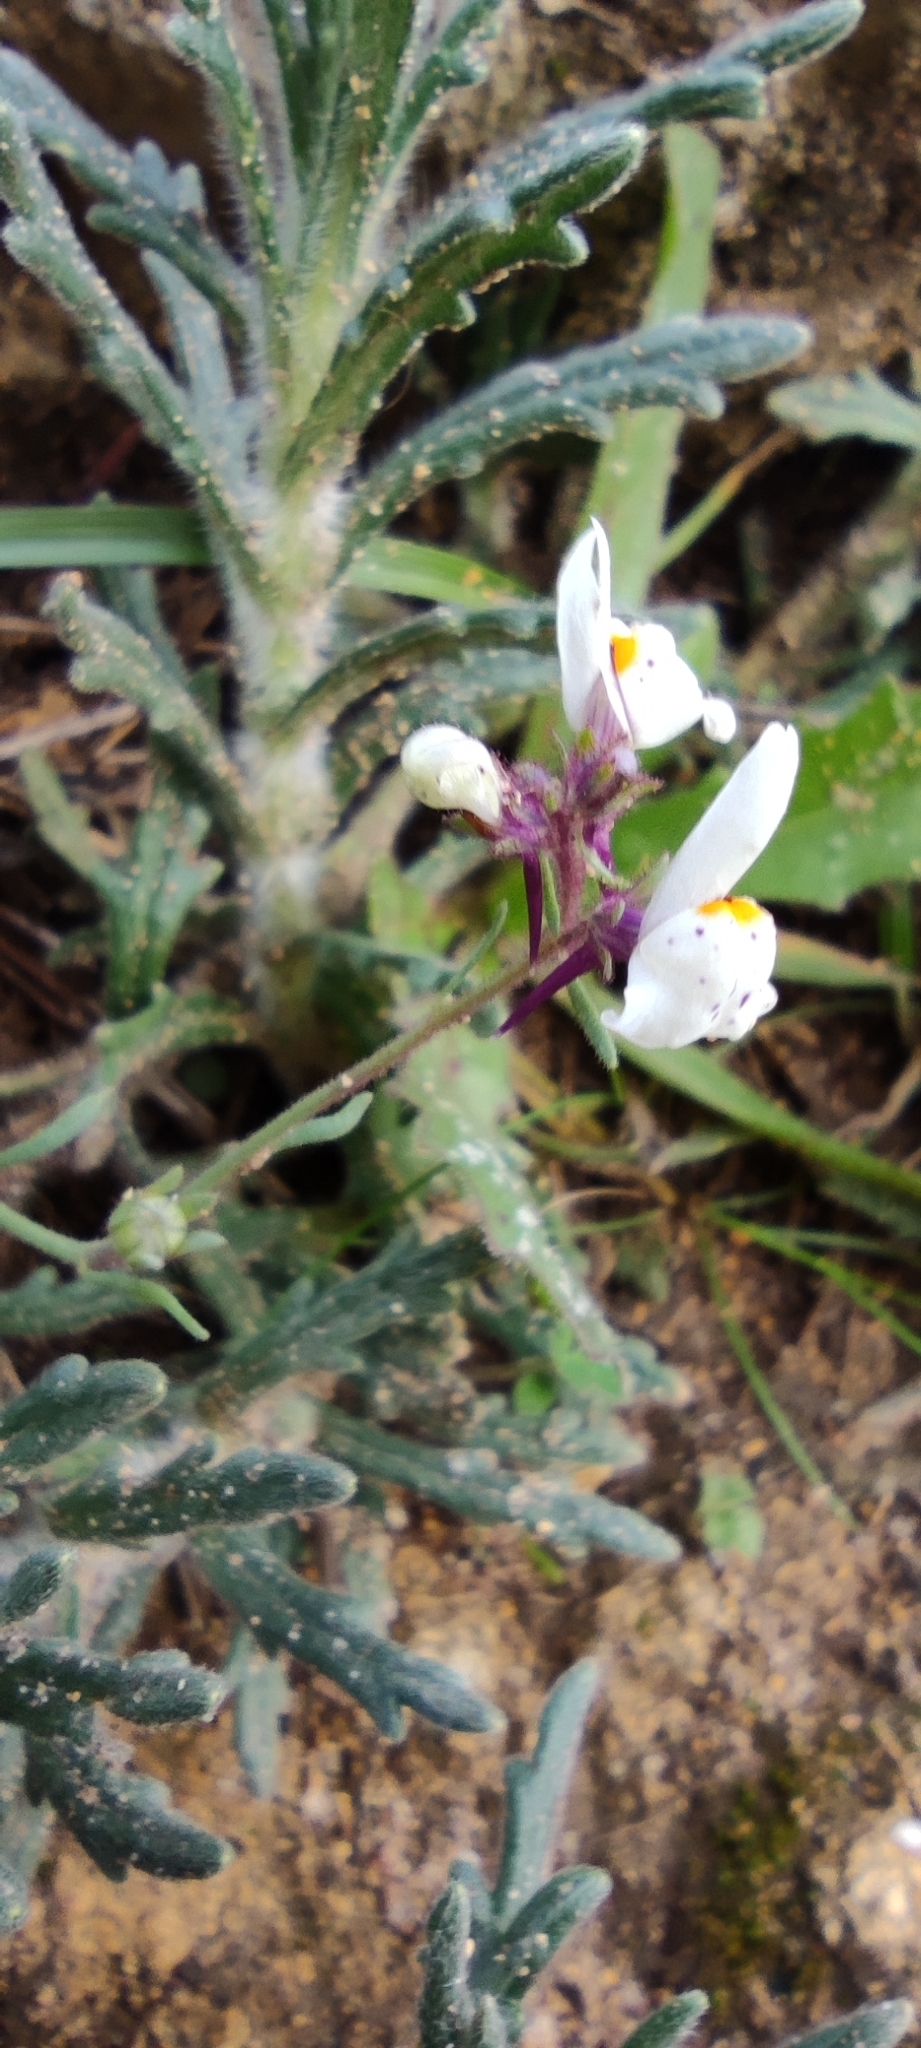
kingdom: Plantae
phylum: Tracheophyta
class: Magnoliopsida
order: Lamiales
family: Plantaginaceae
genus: Linaria
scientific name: Linaria amethystea
